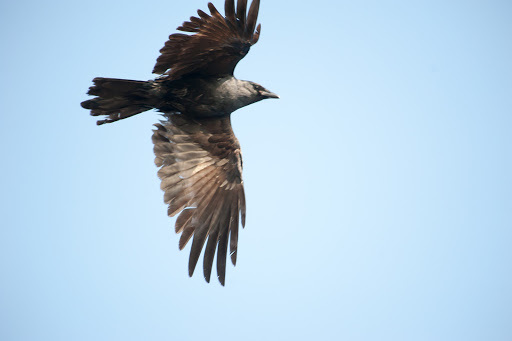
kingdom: Animalia
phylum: Chordata
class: Aves
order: Passeriformes
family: Corvidae
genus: Corvus
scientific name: Corvus
